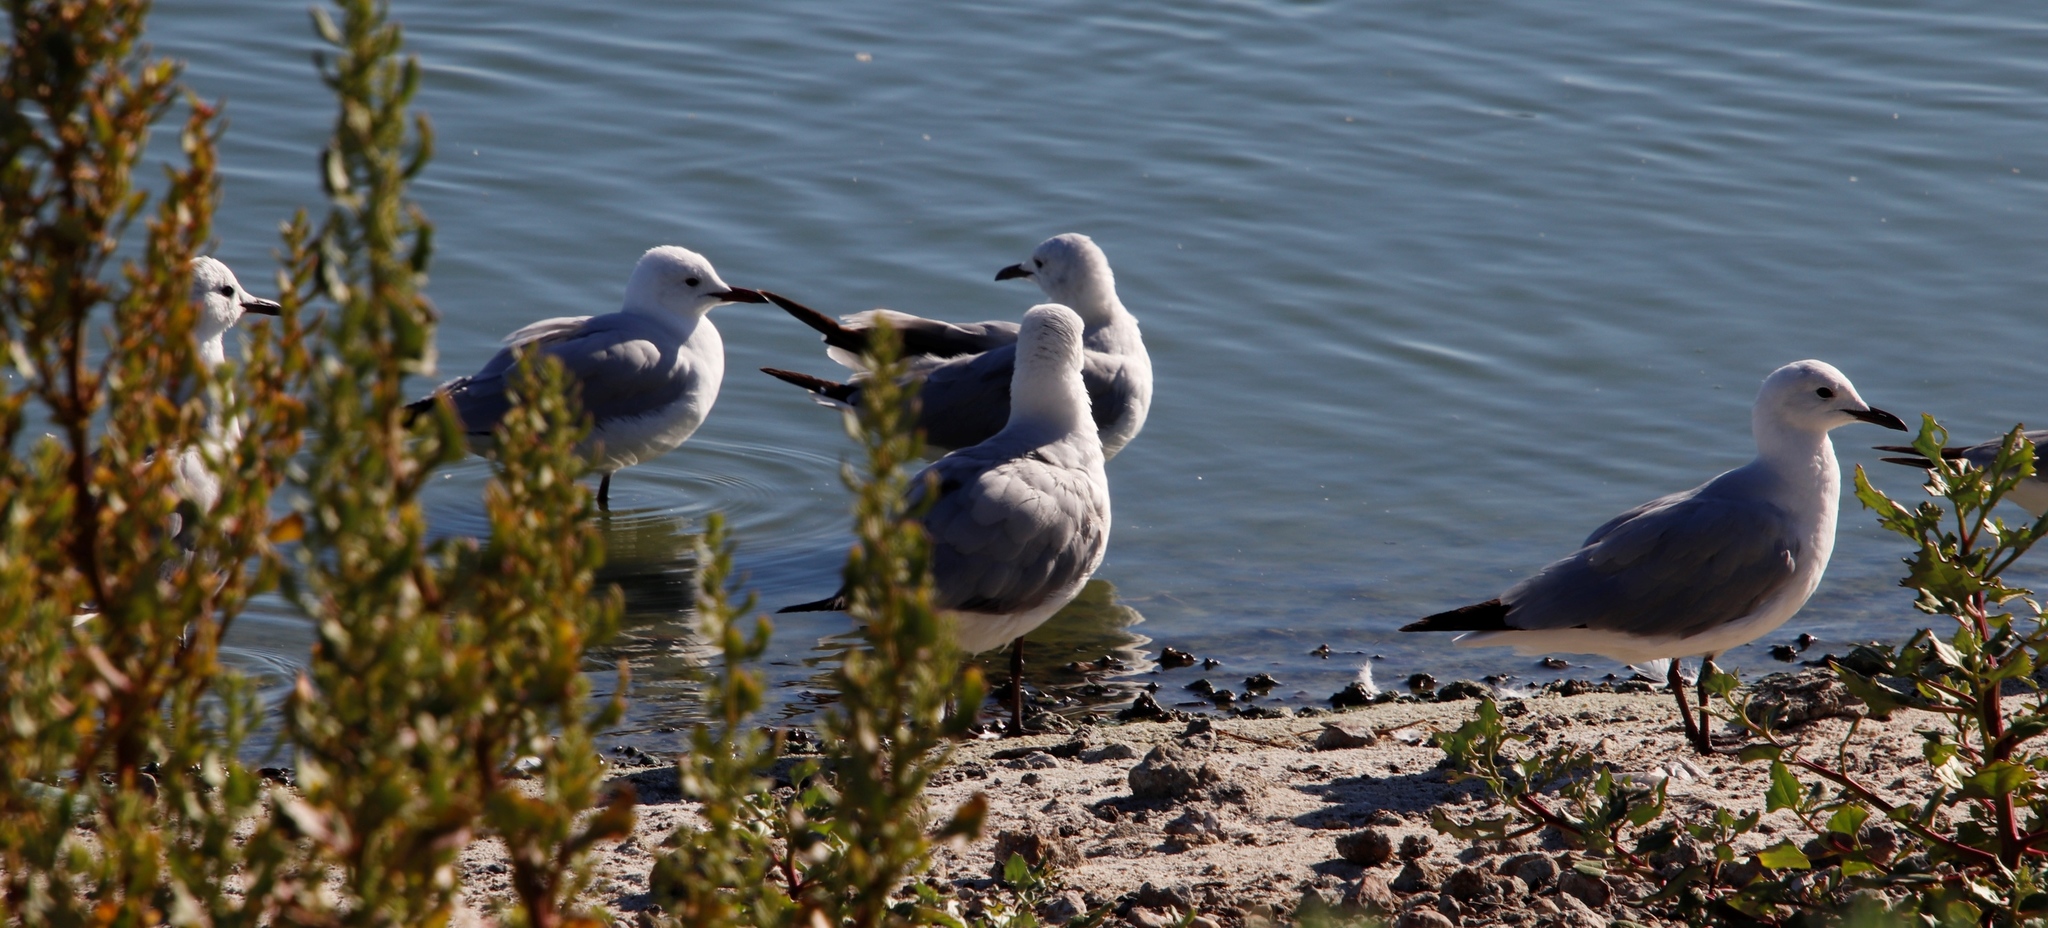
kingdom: Animalia
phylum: Chordata
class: Aves
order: Charadriiformes
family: Laridae
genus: Chroicocephalus
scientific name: Chroicocephalus hartlaubii
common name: Hartlaub's gull
